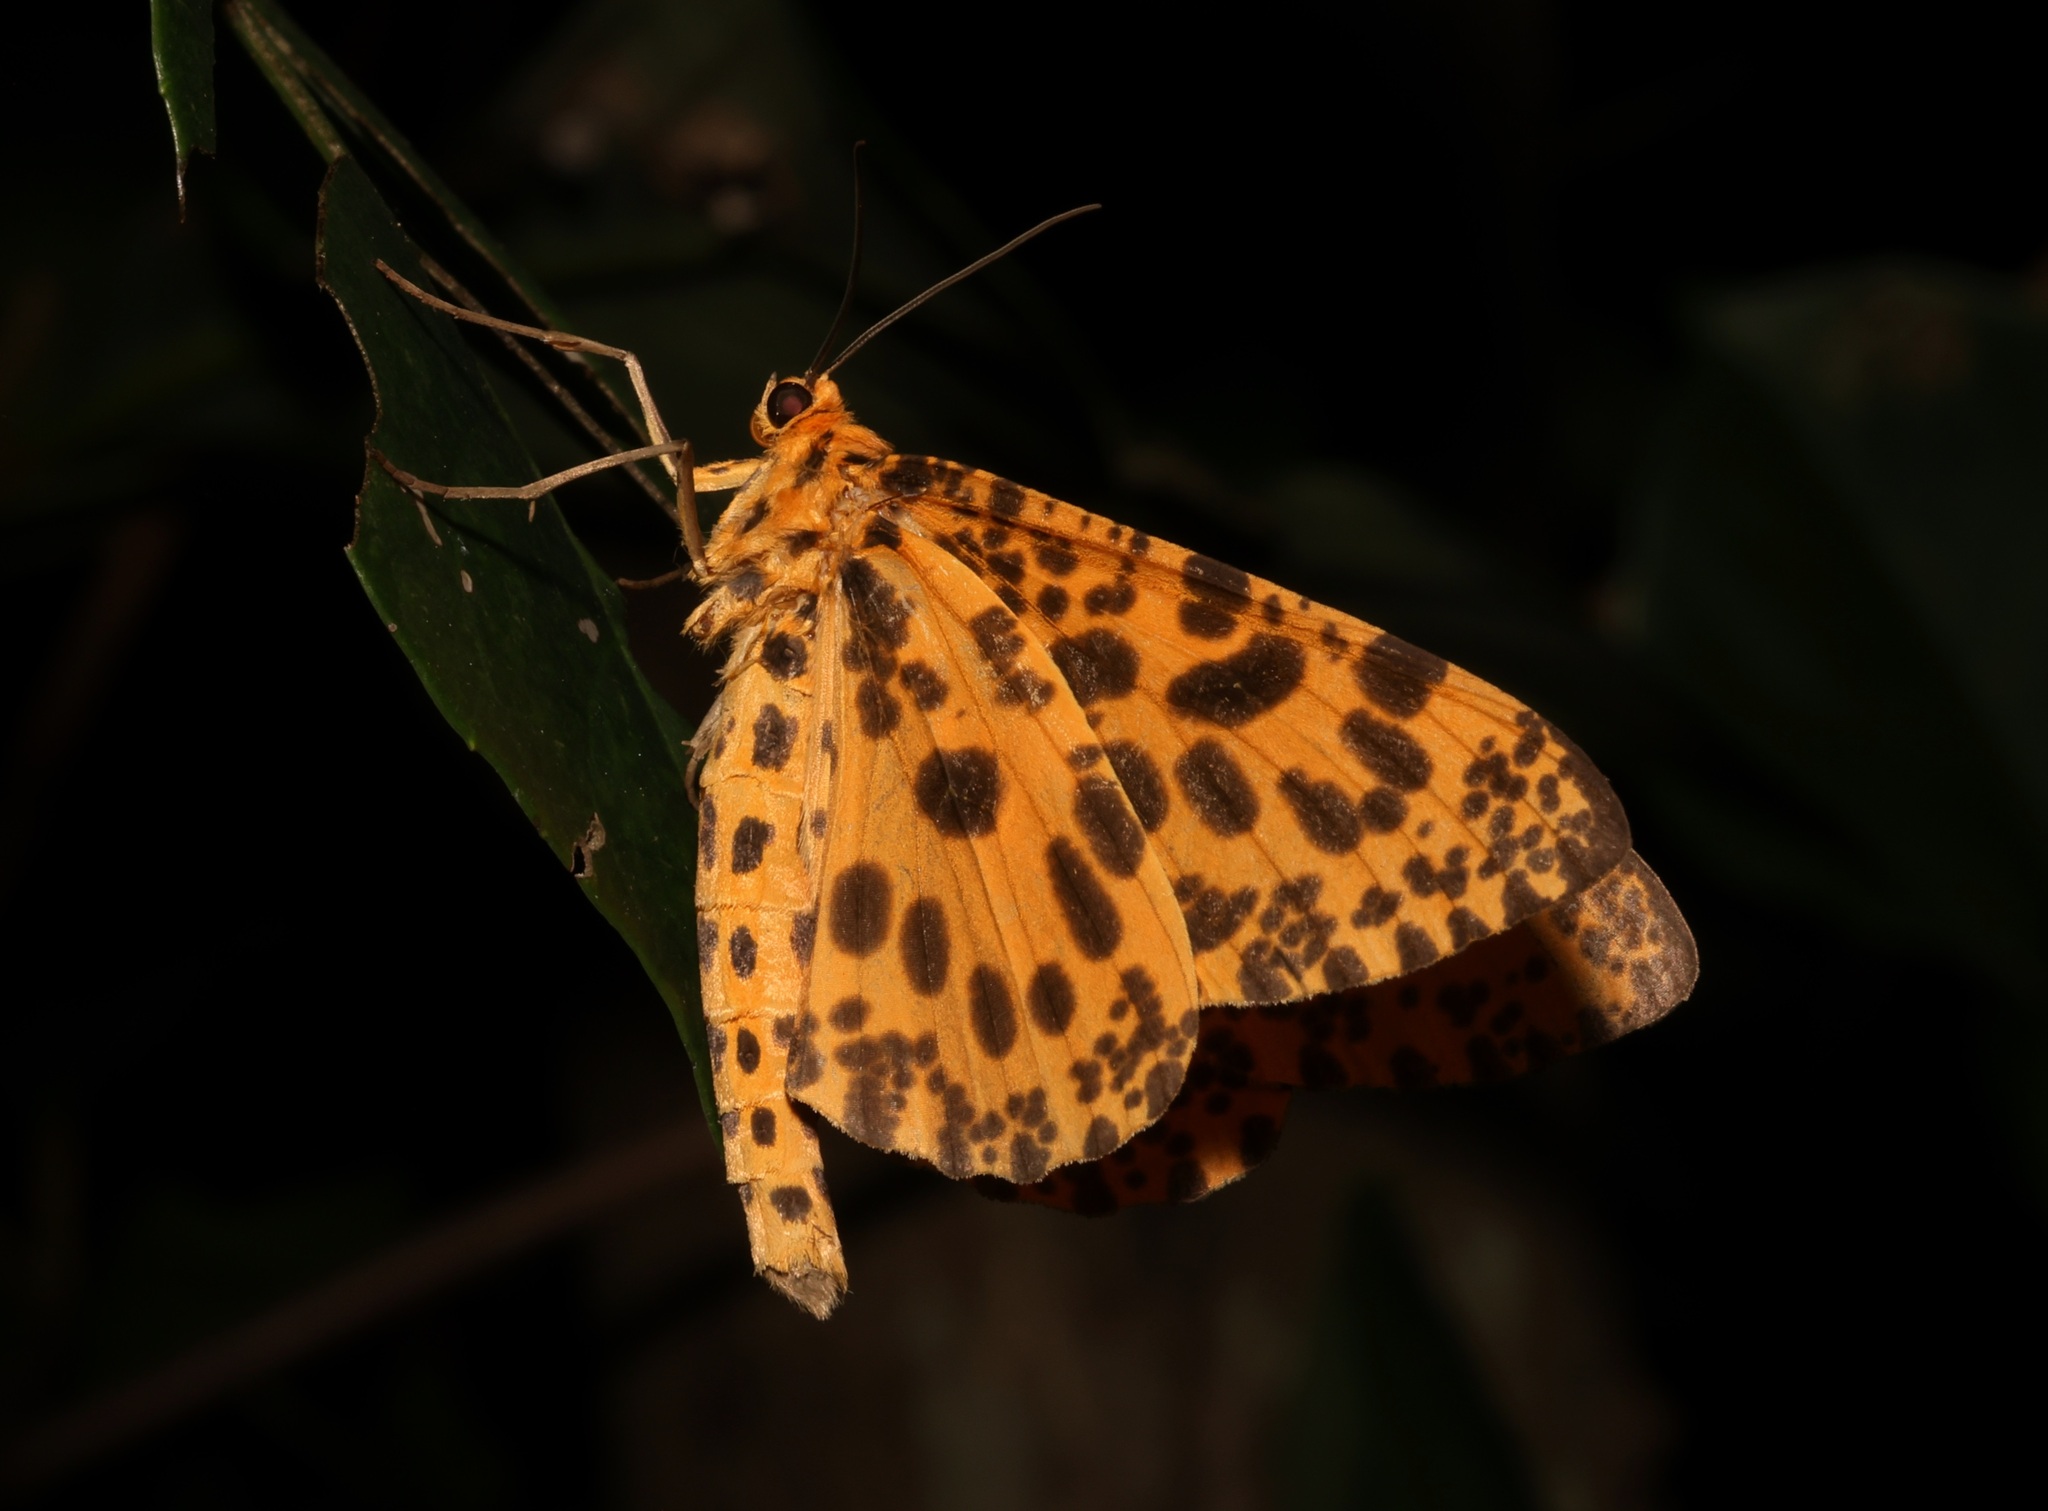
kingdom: Animalia
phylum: Arthropoda
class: Insecta
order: Lepidoptera
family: Geometridae
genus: Obeidia
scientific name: Obeidia Epobeidia tigrata
